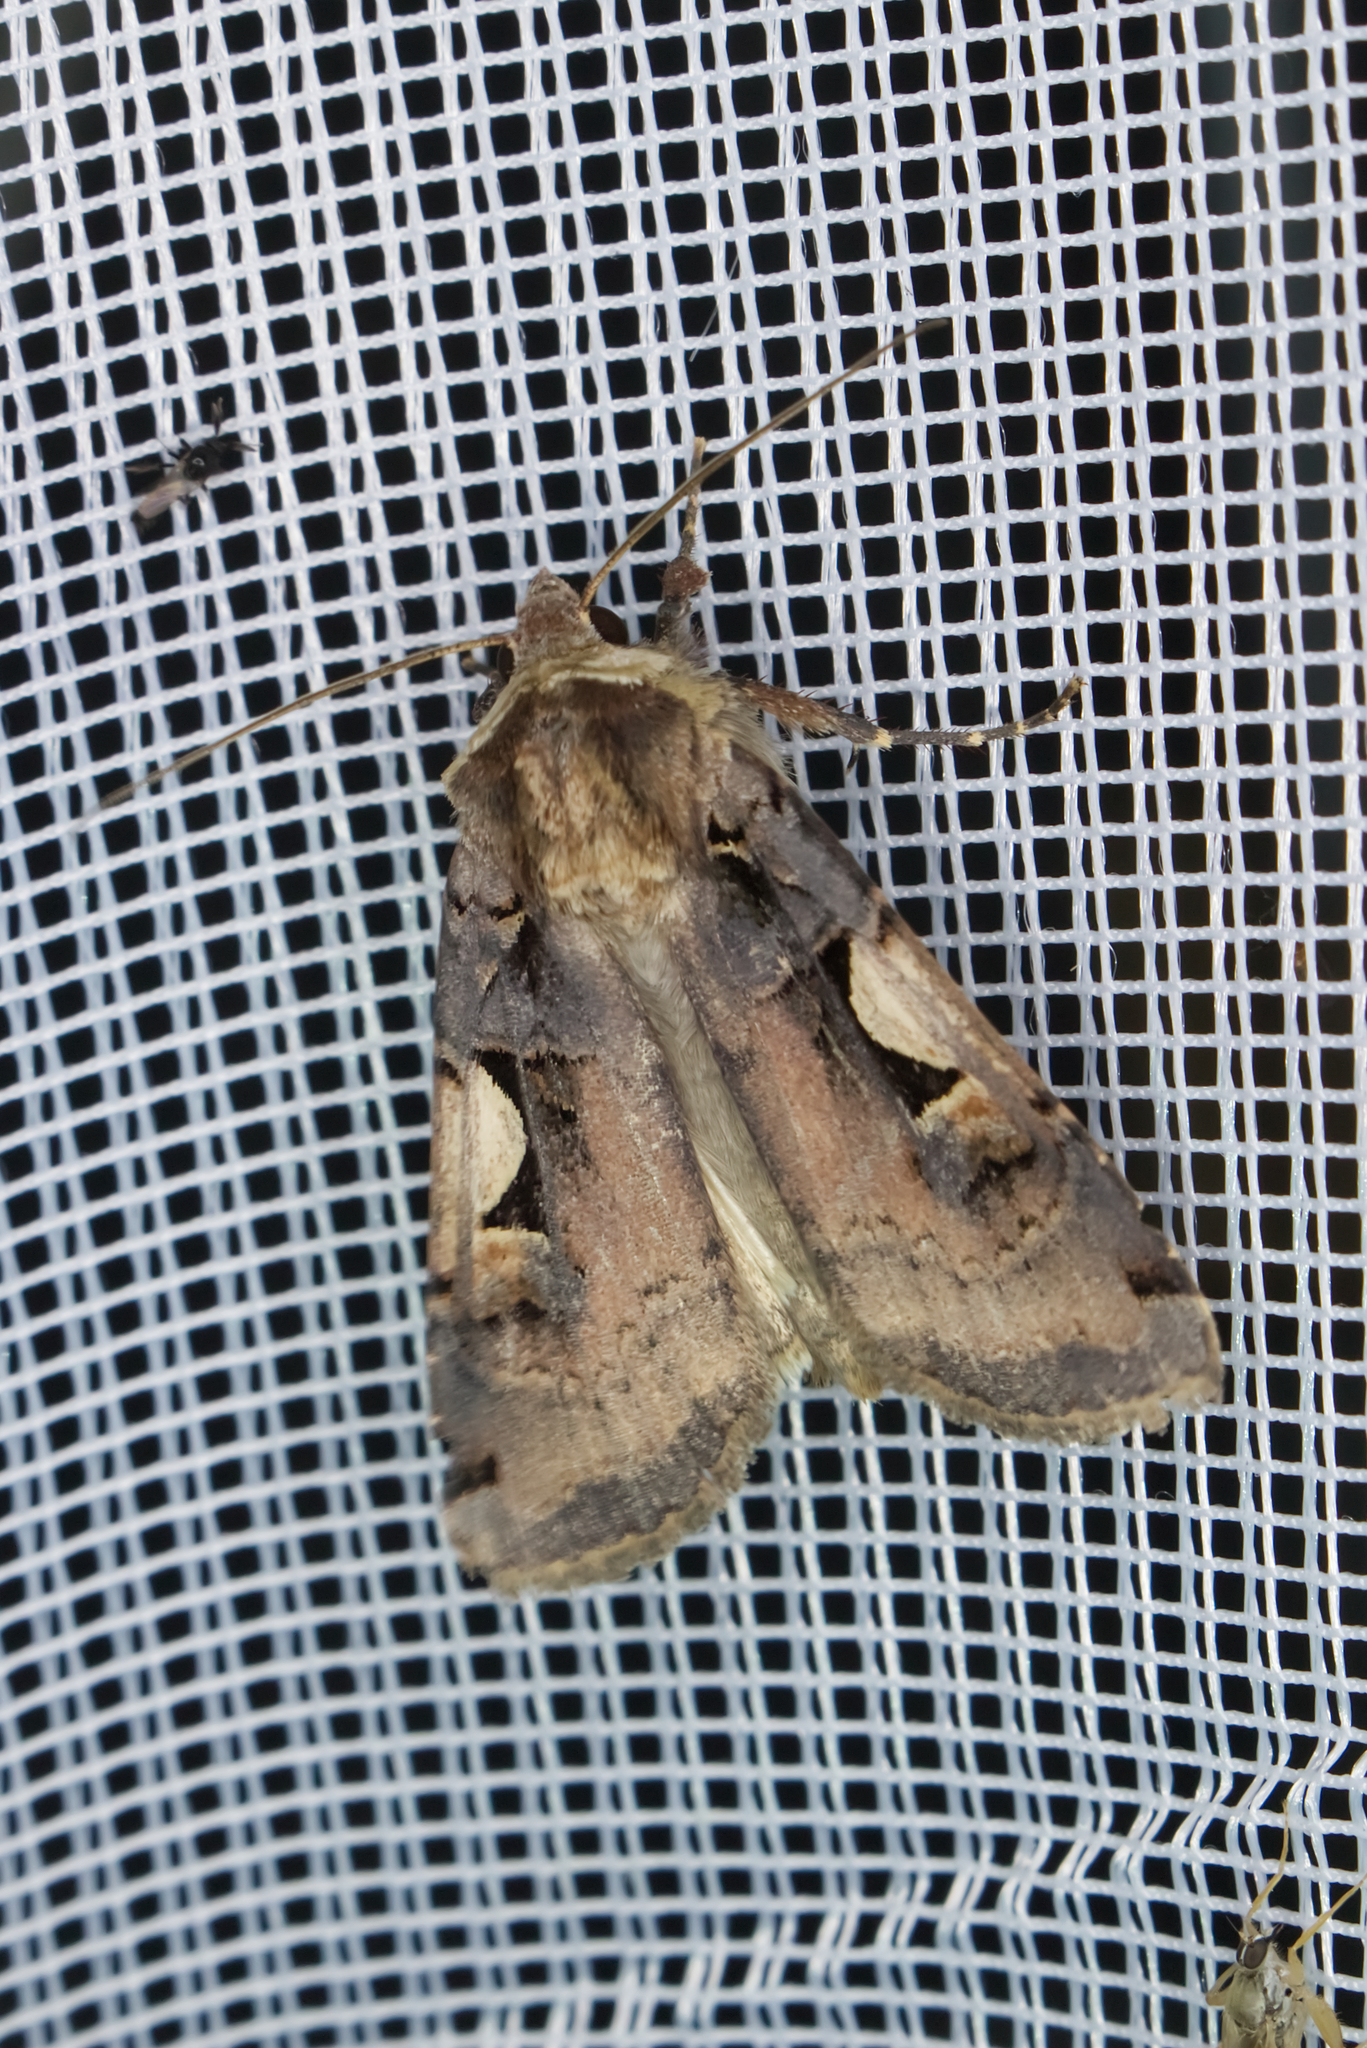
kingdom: Animalia
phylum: Arthropoda
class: Insecta
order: Lepidoptera
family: Noctuidae
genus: Xestia
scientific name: Xestia c-nigrum
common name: Setaceous hebrew character
